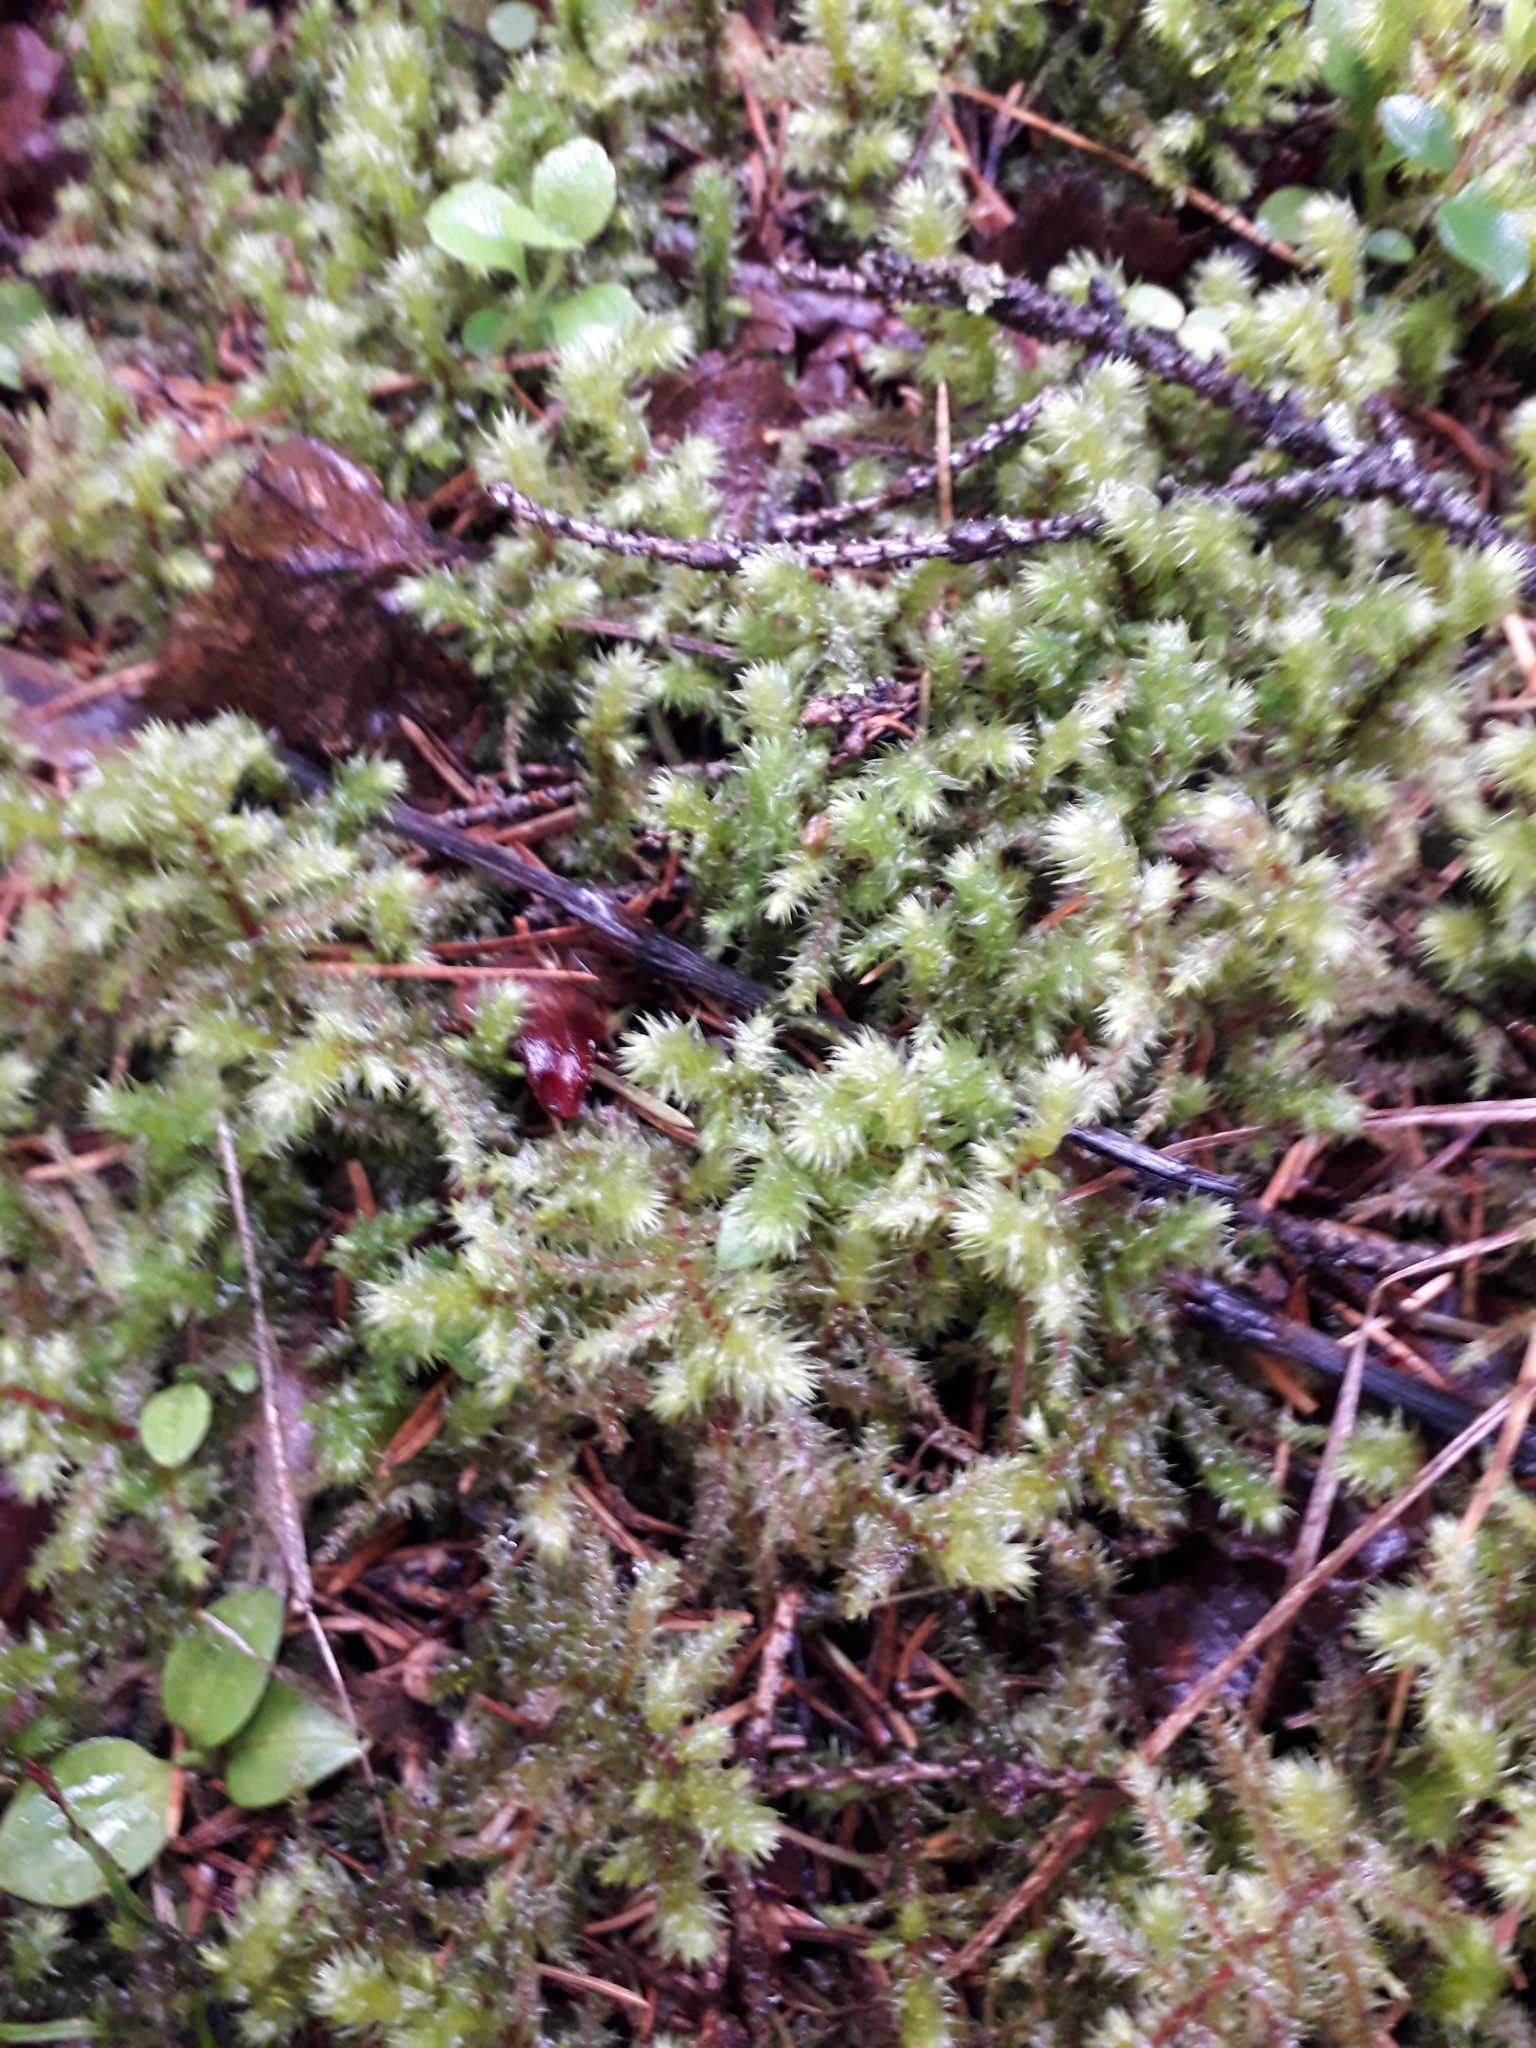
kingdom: Plantae
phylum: Bryophyta
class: Bryopsida
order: Hypnales
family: Hylocomiaceae
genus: Hylocomiadelphus
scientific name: Hylocomiadelphus triquetrus
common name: Rough goose neck moss
